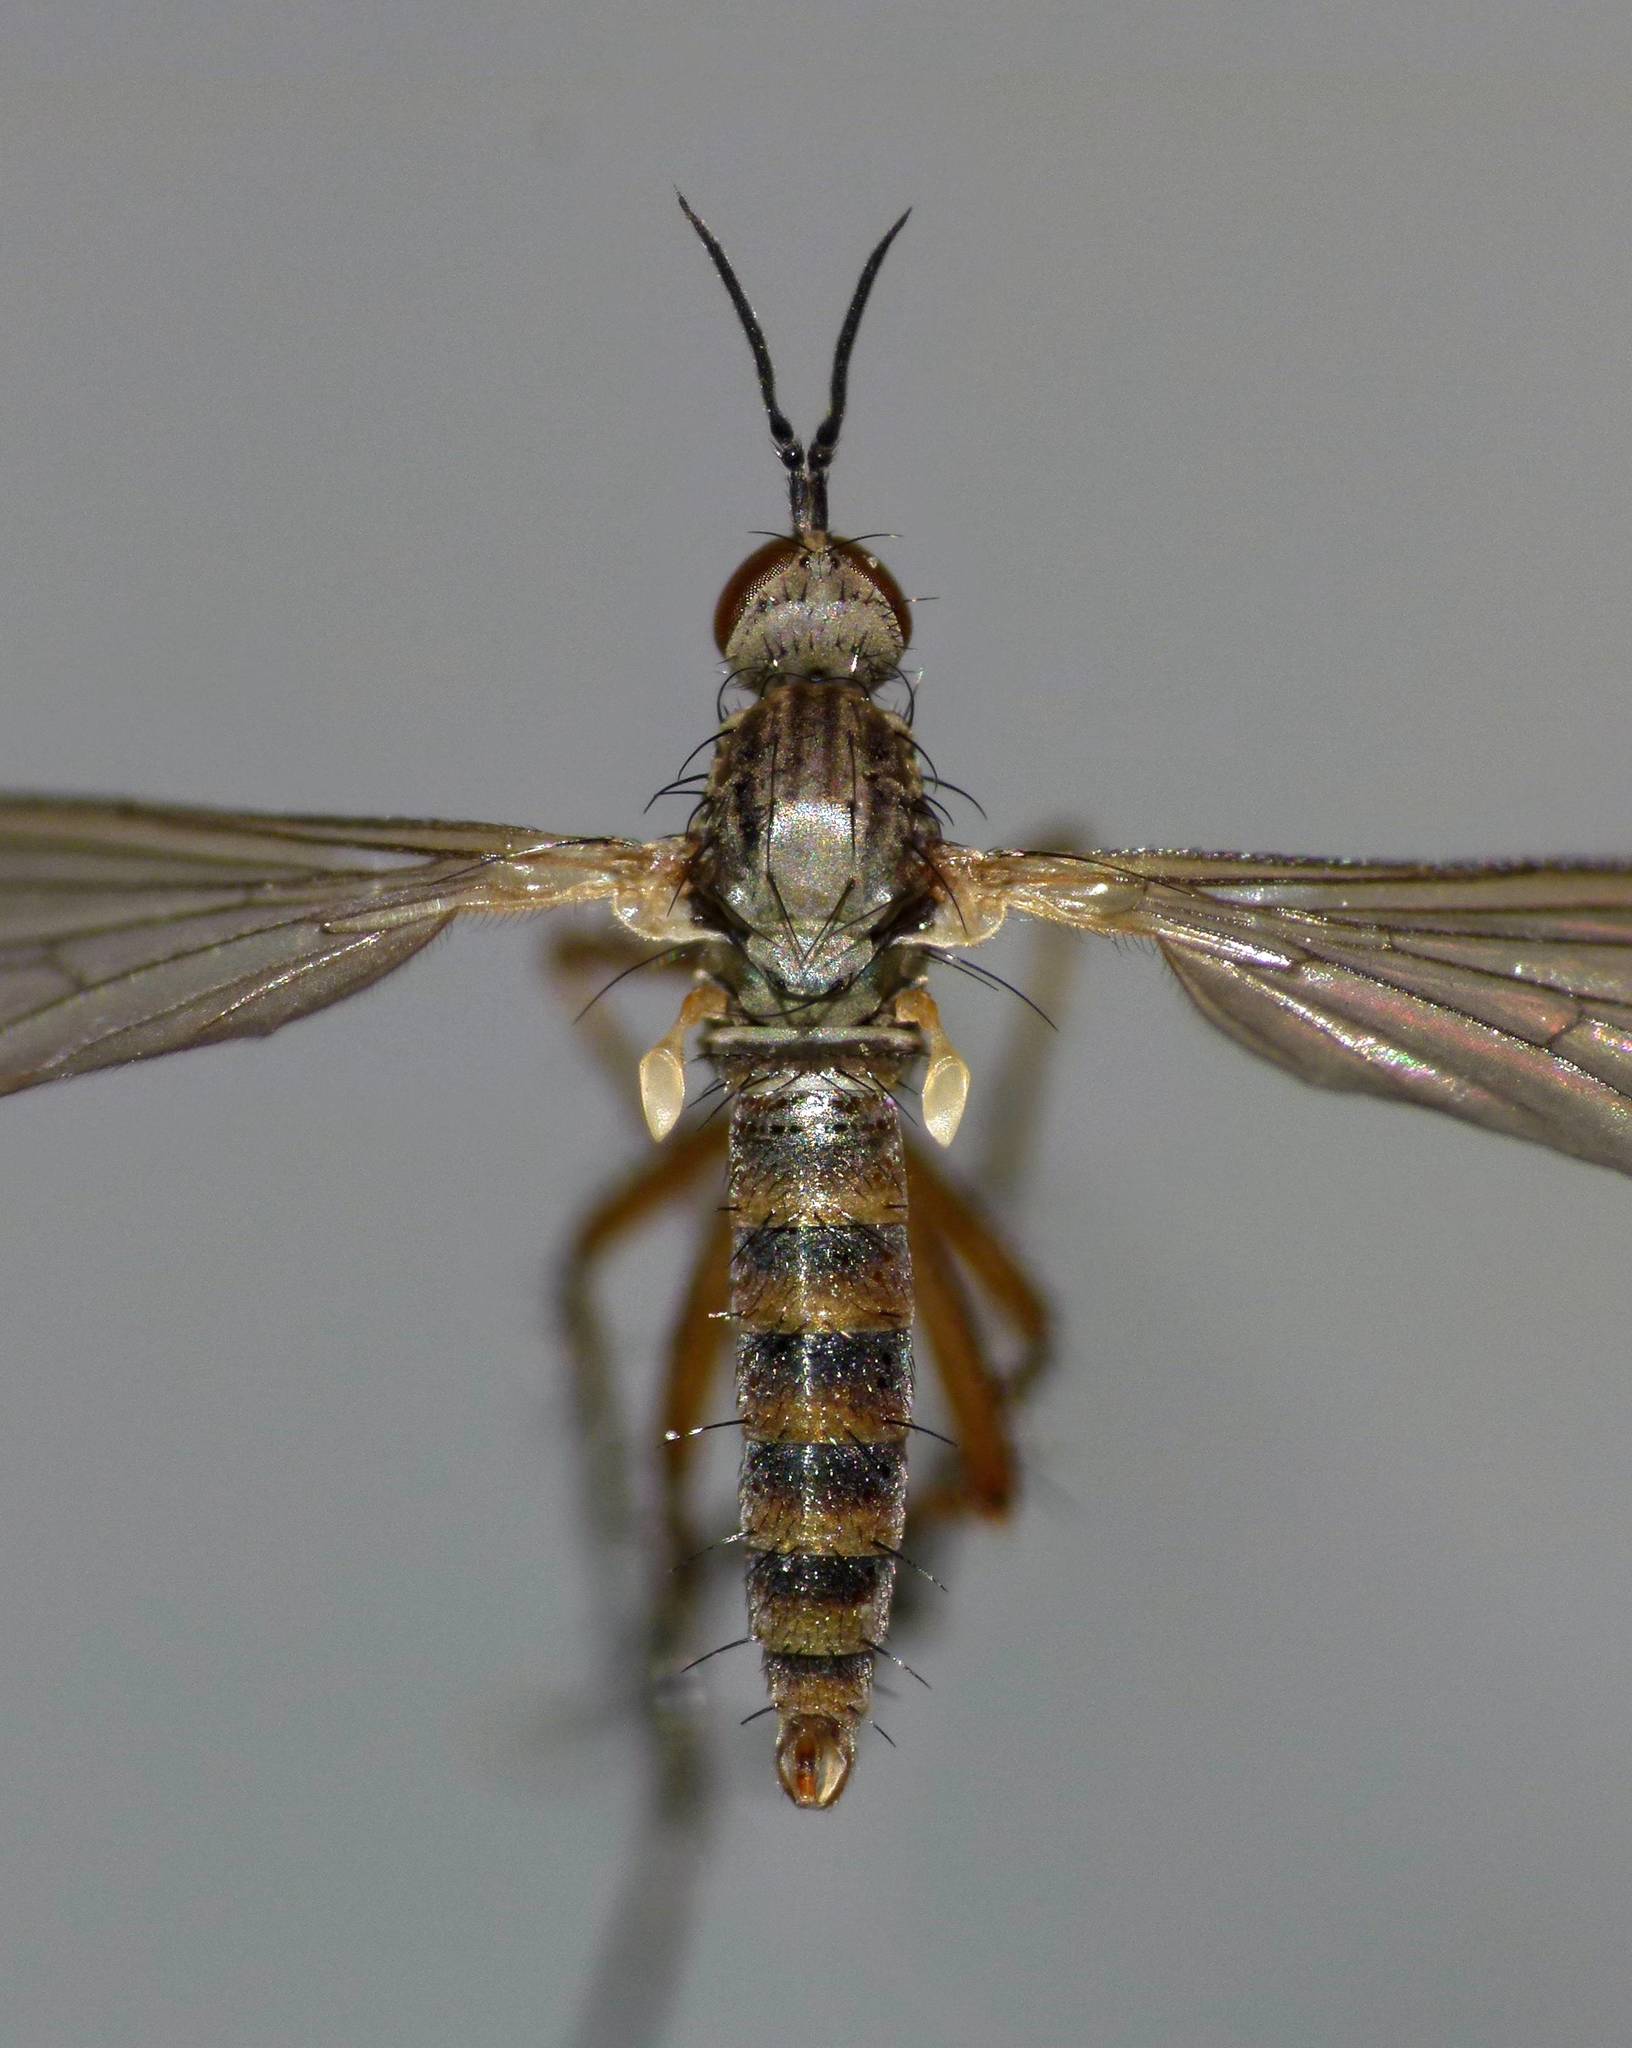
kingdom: Animalia
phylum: Arthropoda
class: Insecta
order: Diptera
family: Empididae
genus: Empidadelpha
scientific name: Empidadelpha propria
